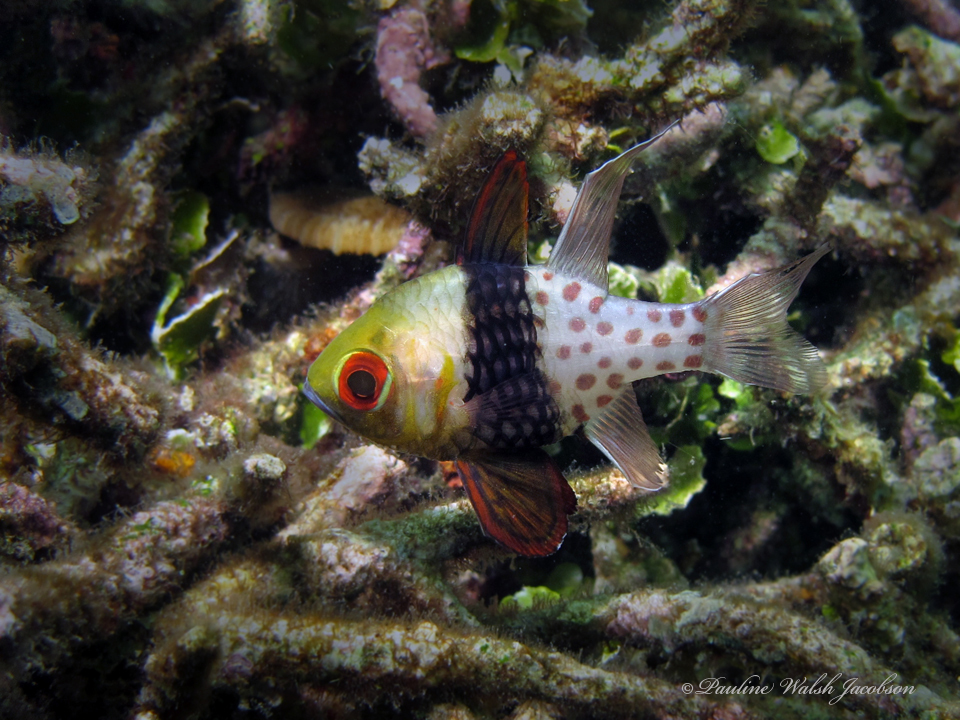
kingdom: Animalia
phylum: Chordata
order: Perciformes
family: Apogonidae
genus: Sphaeramia
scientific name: Sphaeramia nematoptera
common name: Pajama cardinalfish
